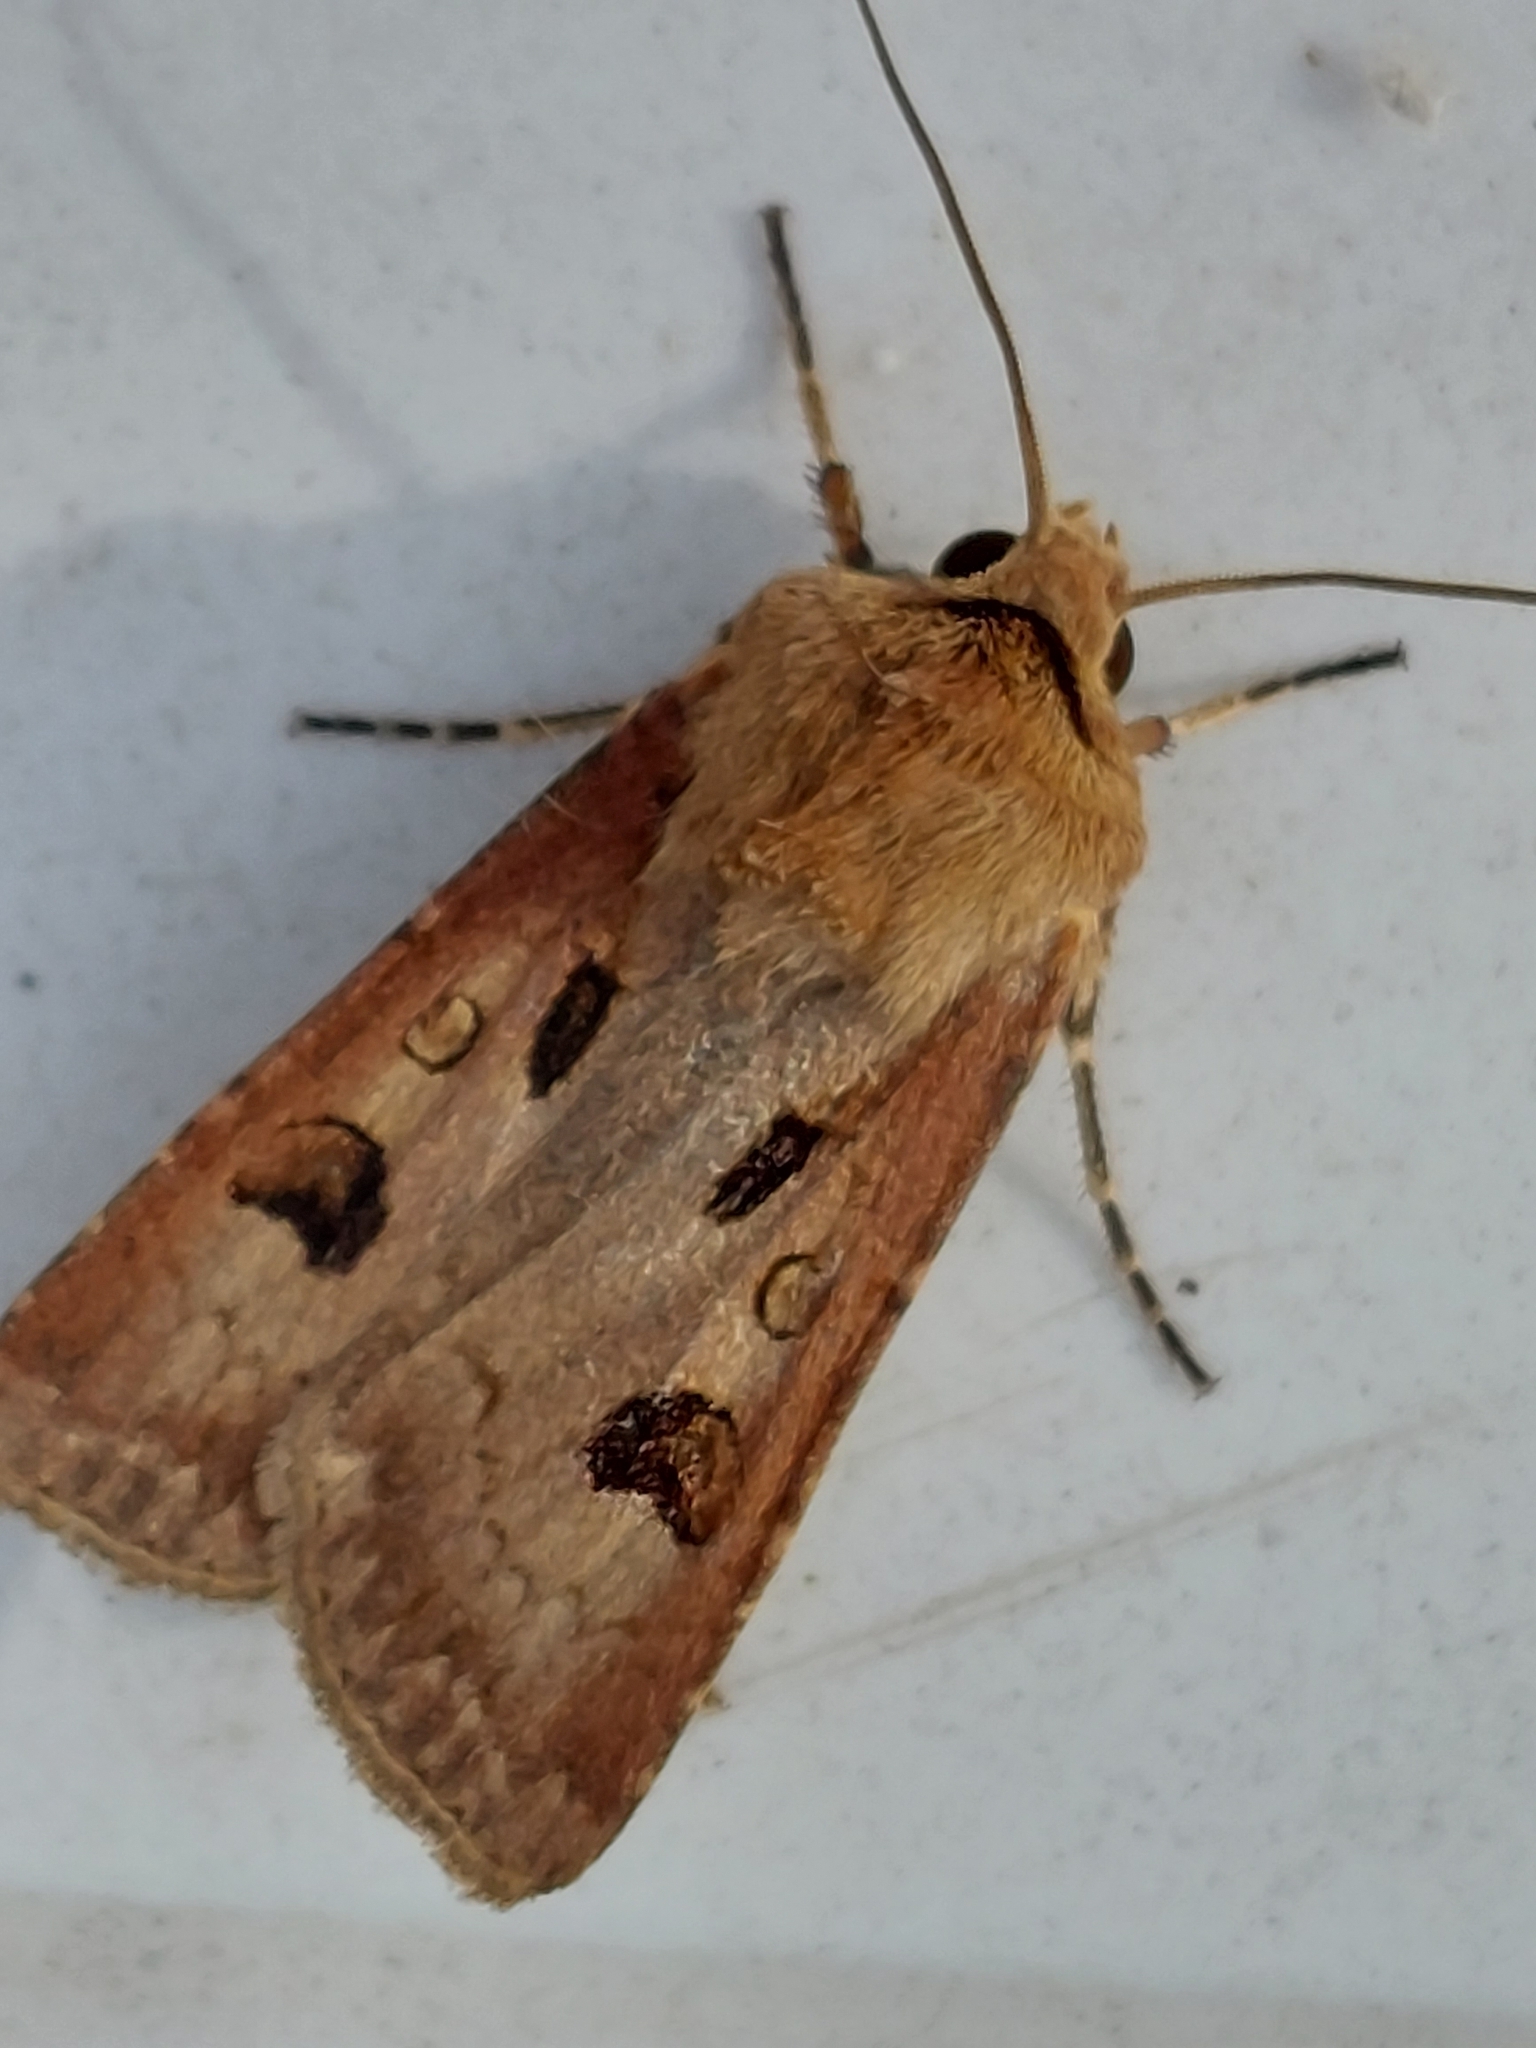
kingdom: Animalia
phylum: Arthropoda
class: Insecta
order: Lepidoptera
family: Noctuidae
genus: Agrotis
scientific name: Agrotis exclamationis
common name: Heart and dart
